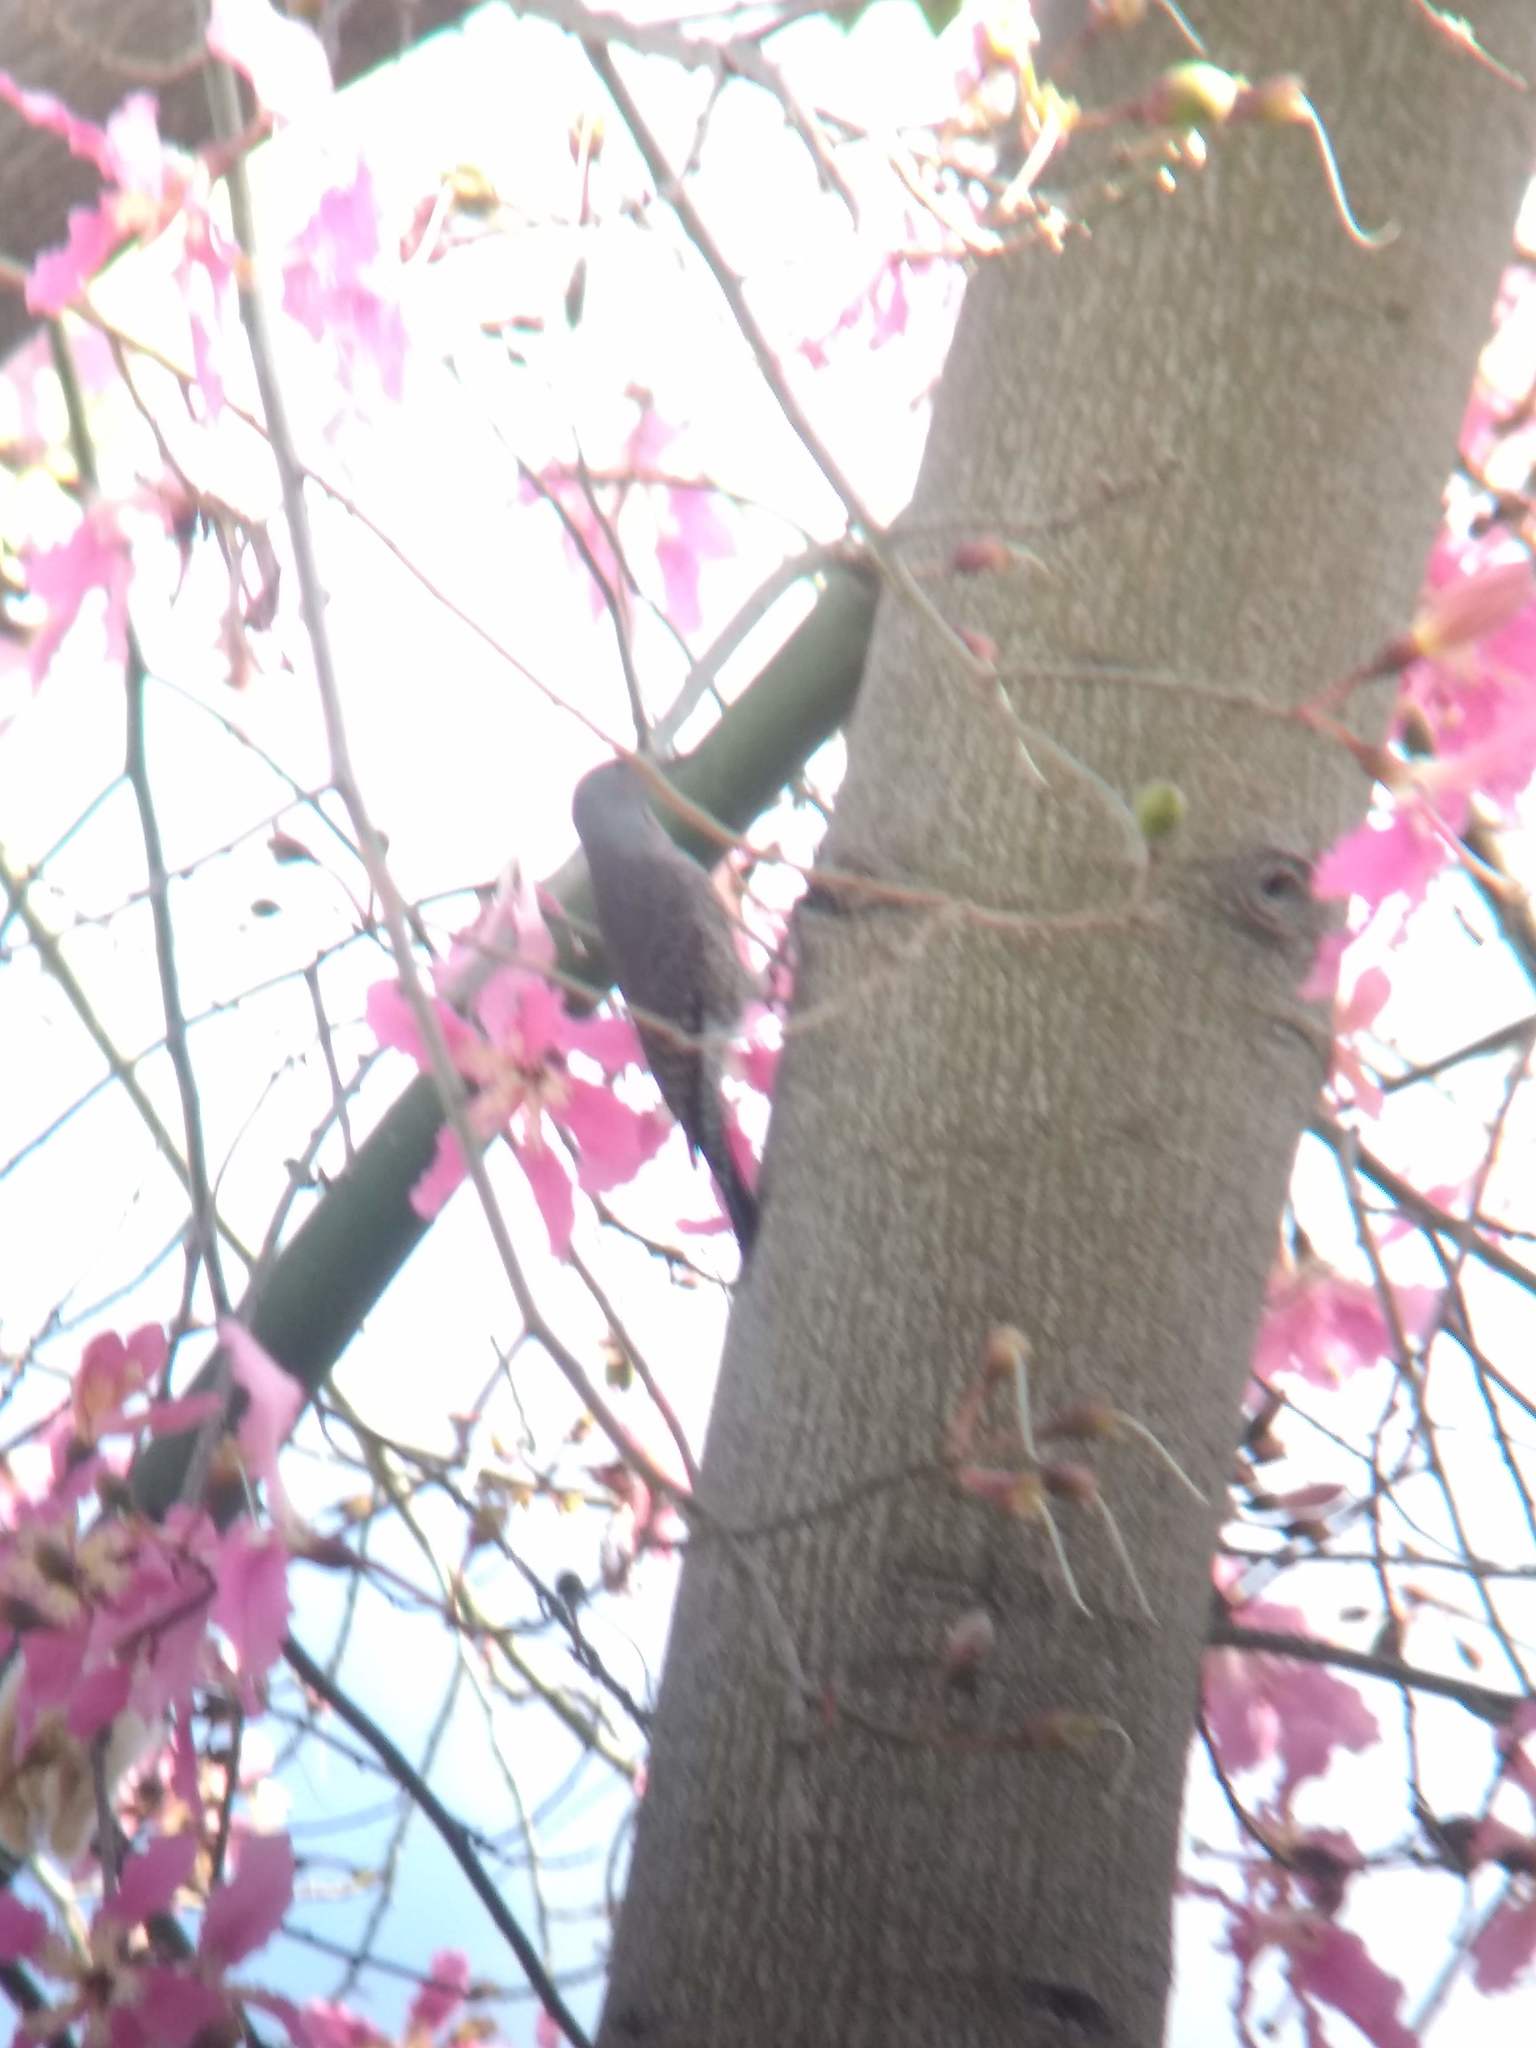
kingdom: Animalia
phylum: Chordata
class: Aves
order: Piciformes
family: Picidae
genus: Colaptes
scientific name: Colaptes auratus
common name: Northern flicker
